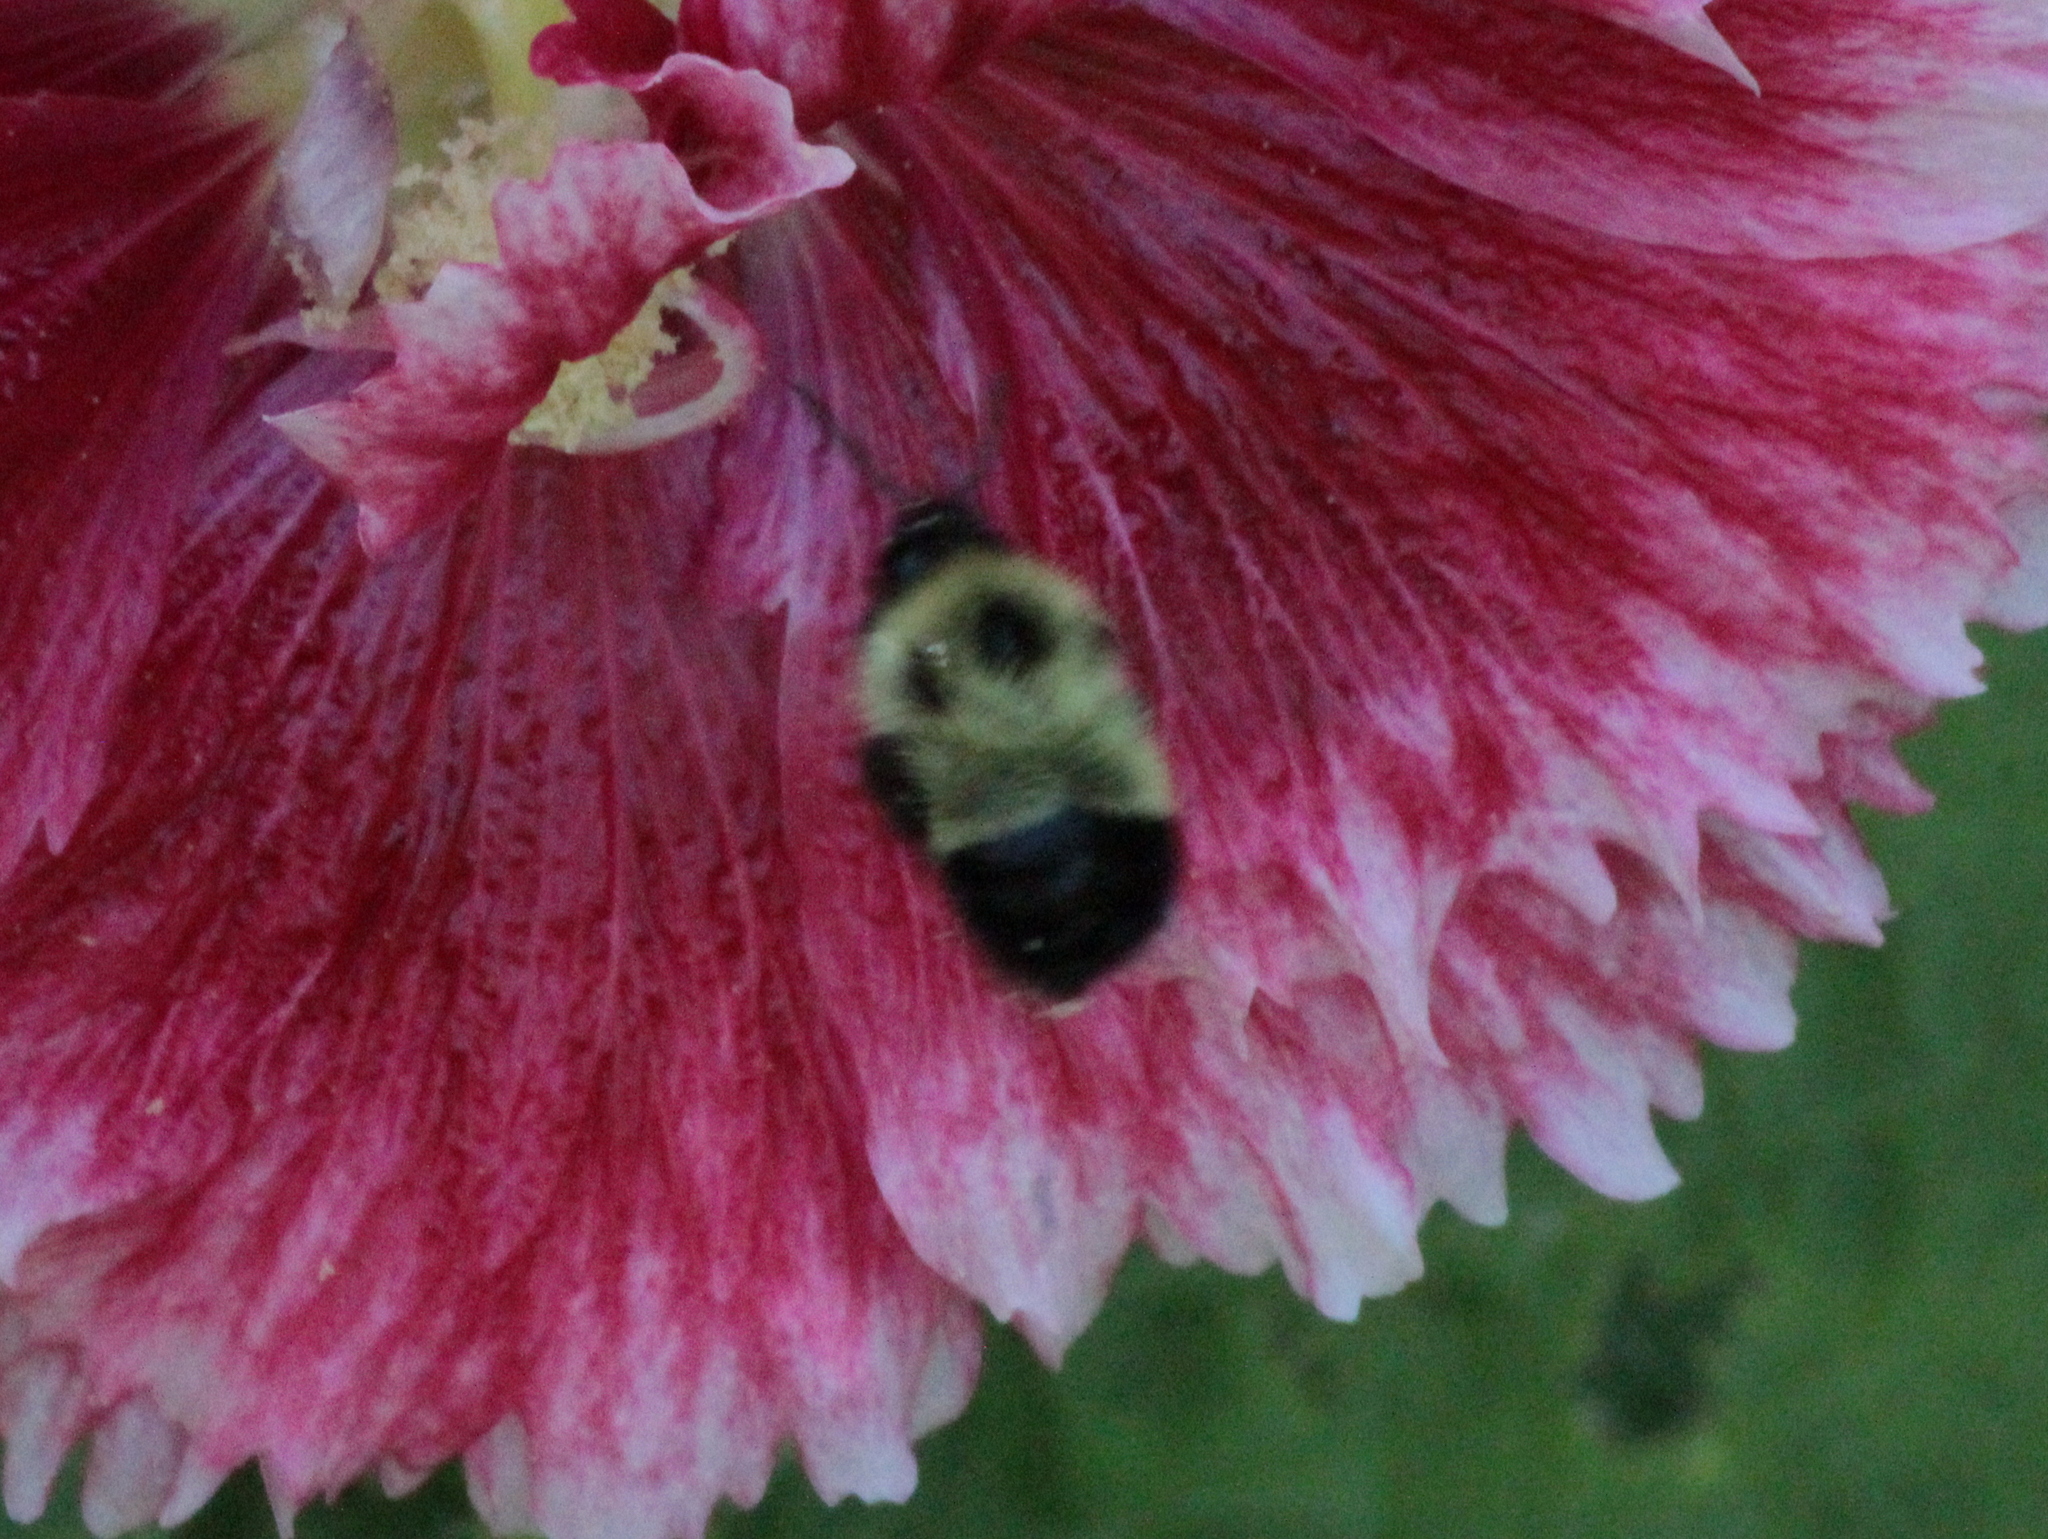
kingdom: Animalia
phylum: Arthropoda
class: Insecta
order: Hymenoptera
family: Apidae
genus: Pyrobombus
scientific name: Pyrobombus
